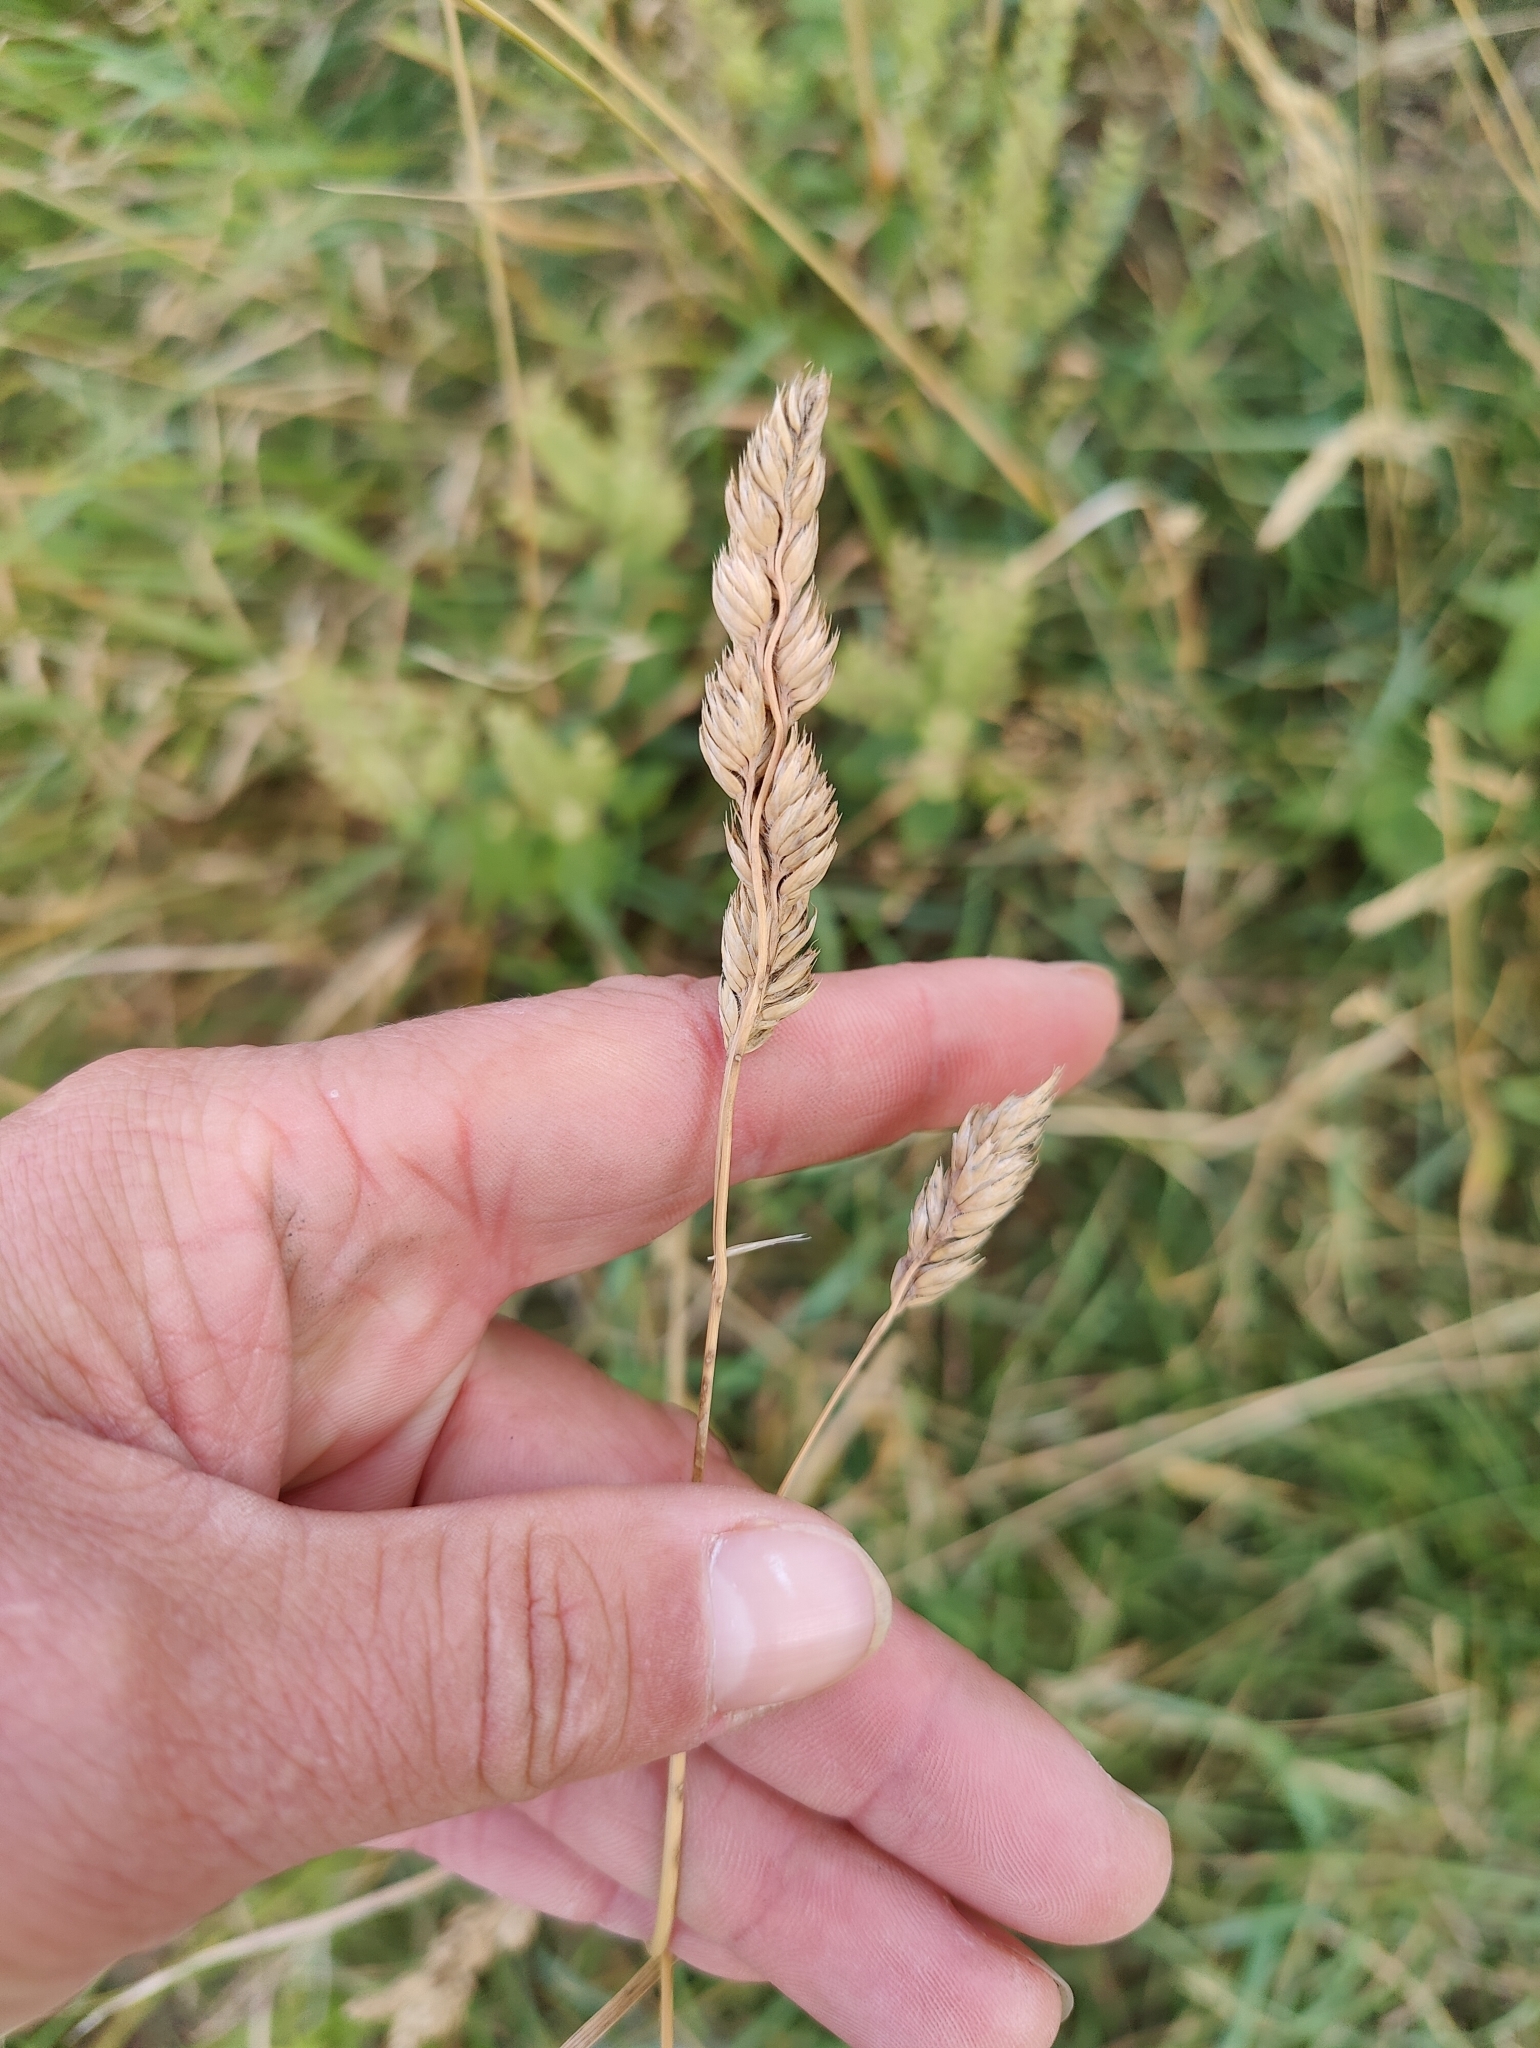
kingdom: Plantae
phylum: Tracheophyta
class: Liliopsida
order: Poales
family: Poaceae
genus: Dactylis
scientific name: Dactylis glomerata
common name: Orchardgrass
